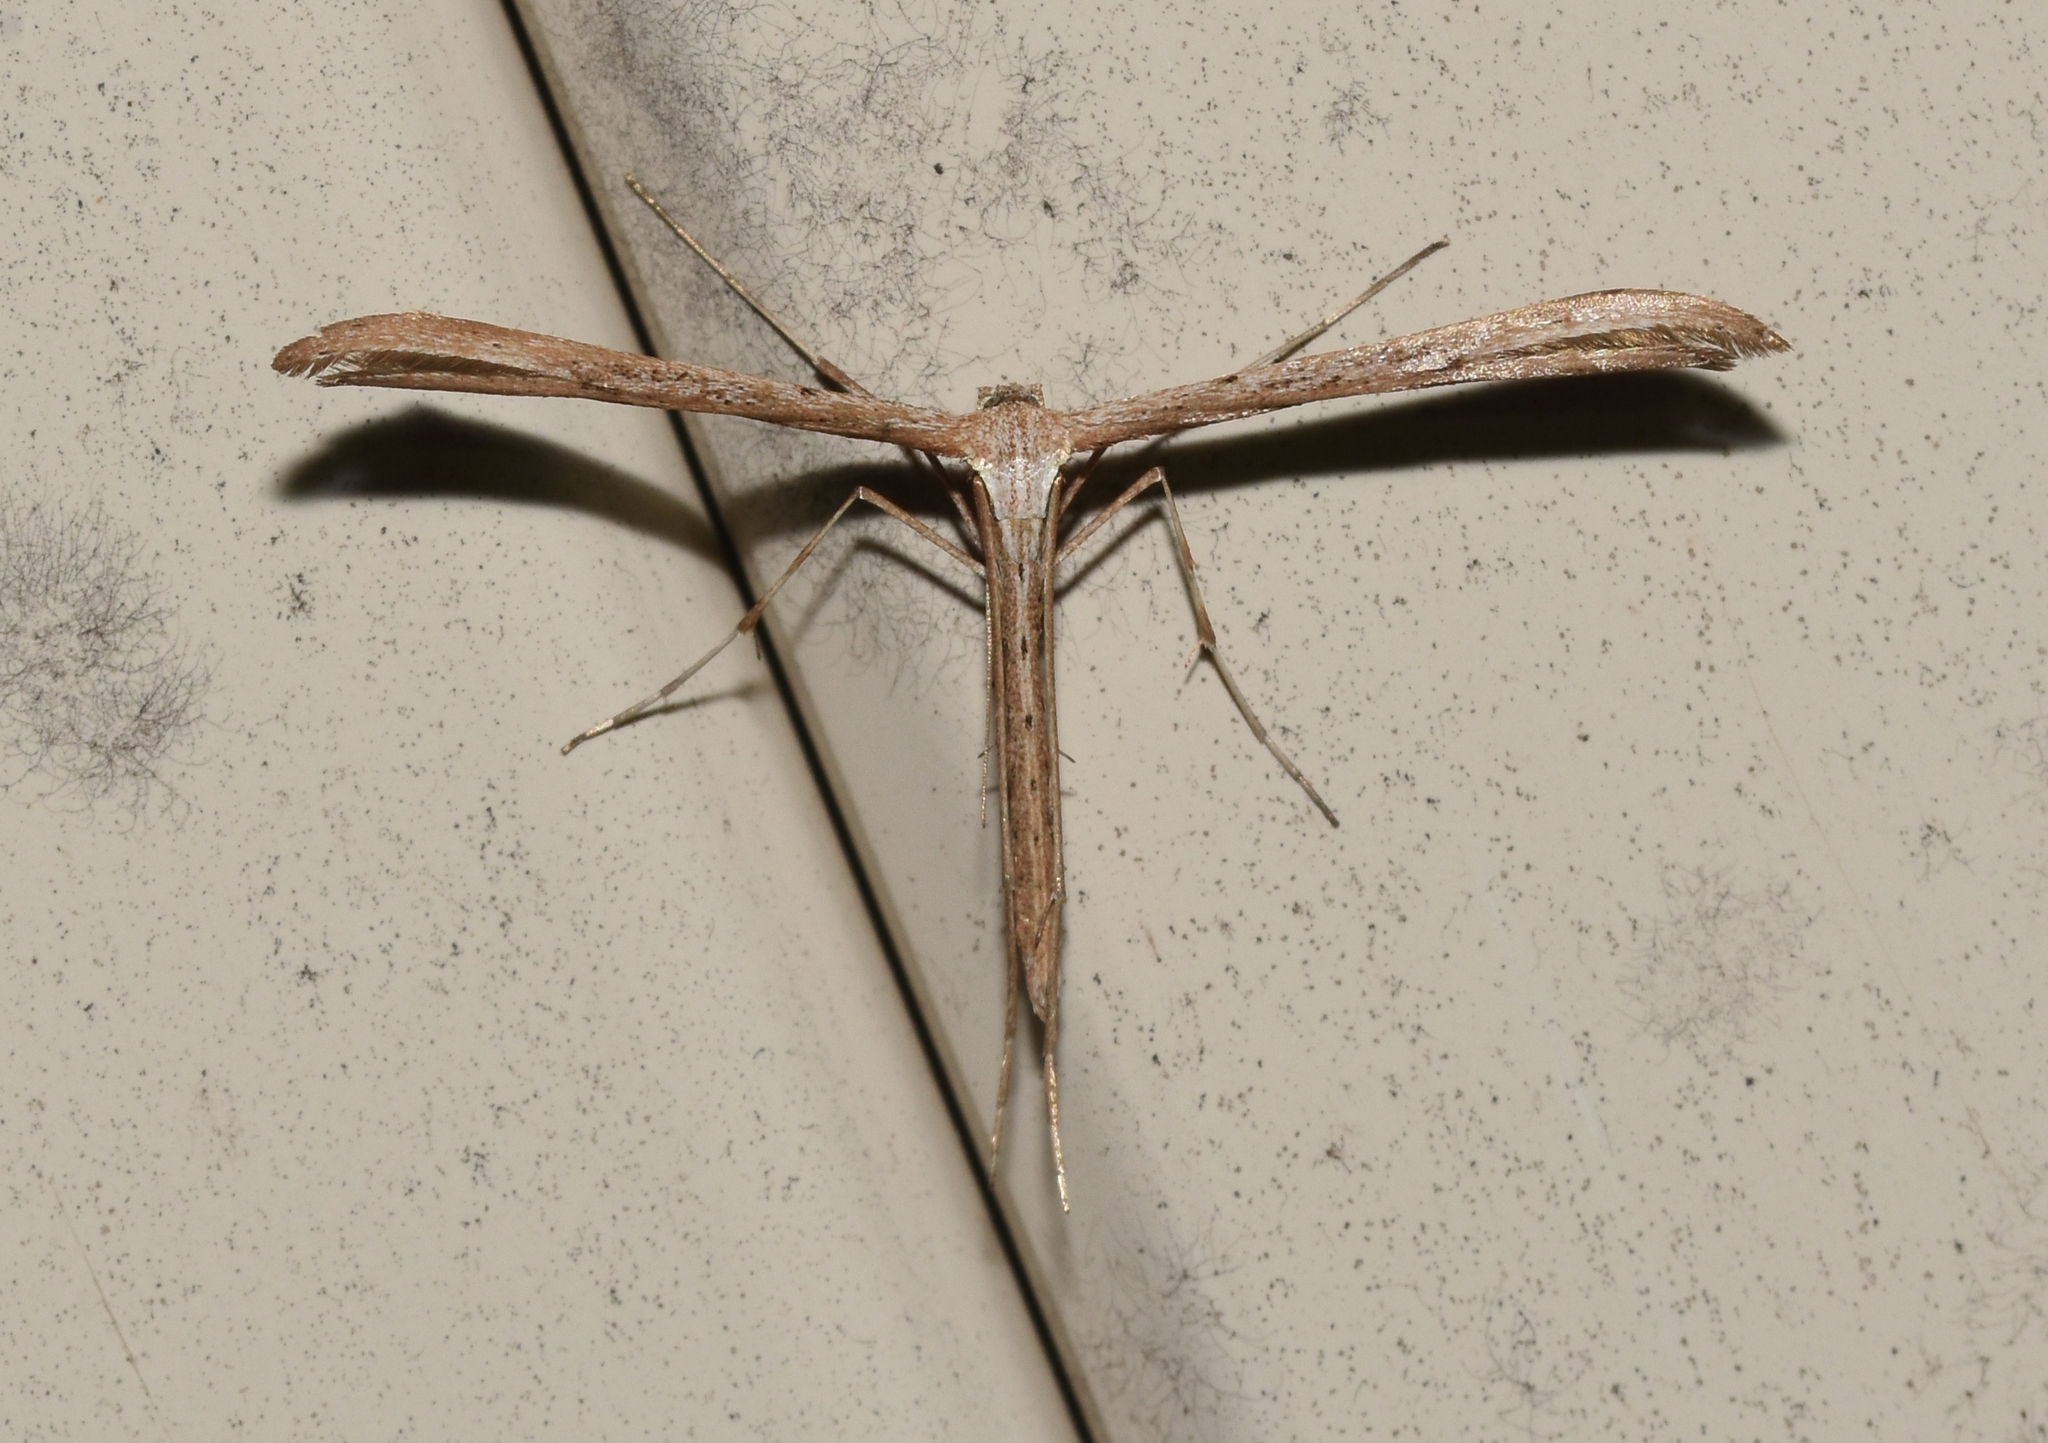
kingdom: Animalia
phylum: Arthropoda
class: Insecta
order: Lepidoptera
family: Pterophoridae
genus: Emmelina
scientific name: Emmelina monodactyla
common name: Common plume
